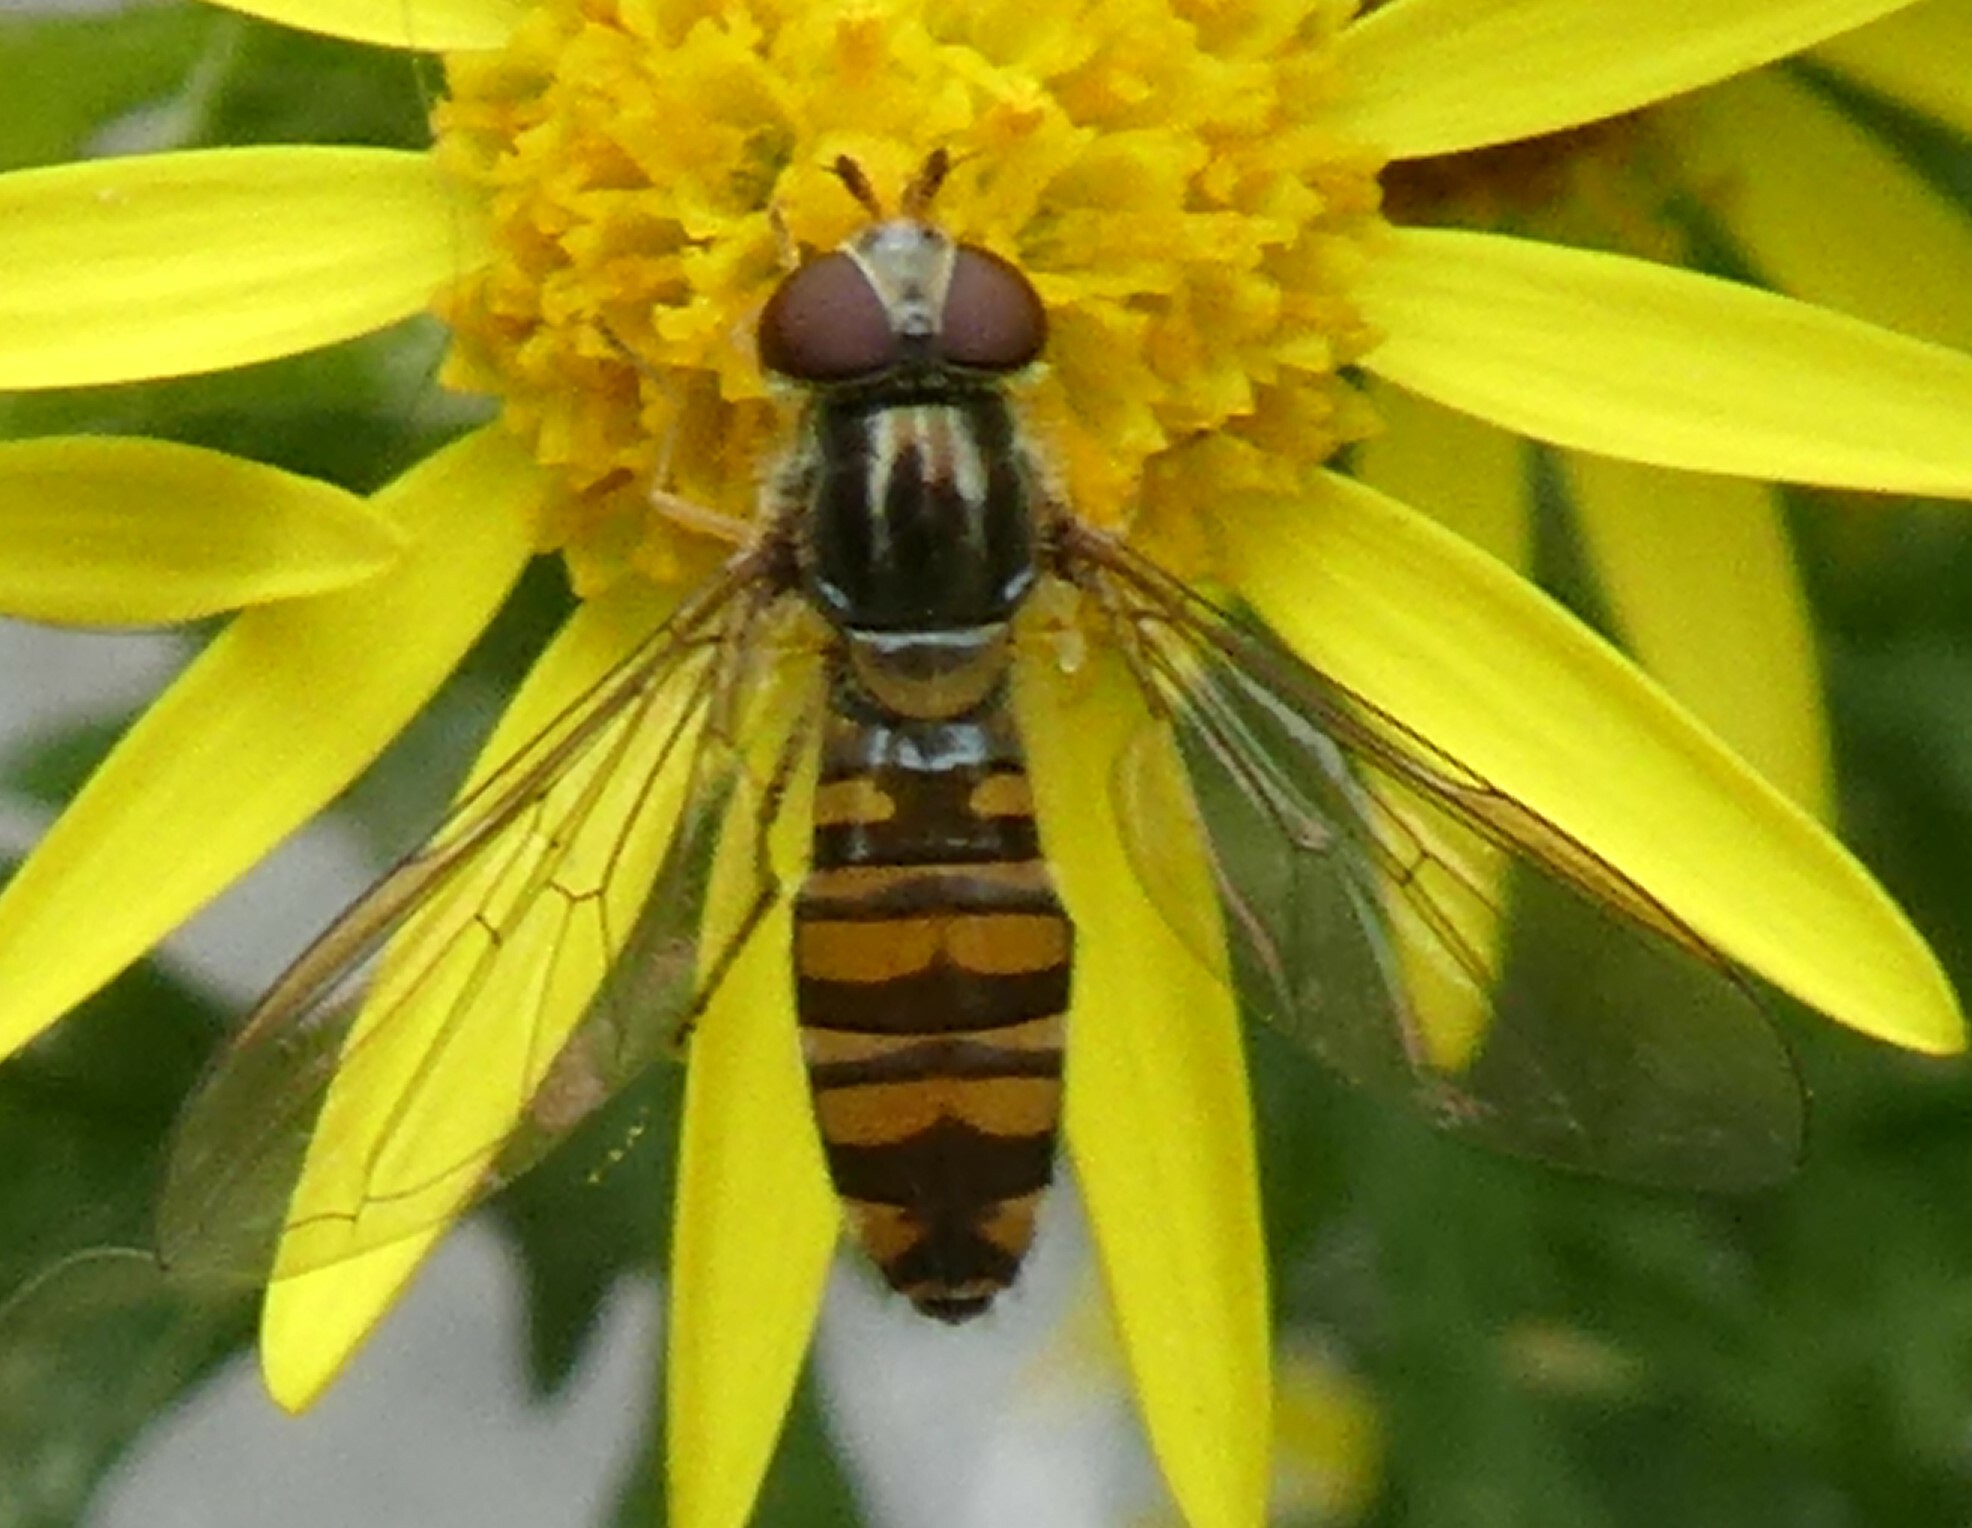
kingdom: Animalia
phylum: Arthropoda
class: Insecta
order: Diptera
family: Syrphidae
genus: Episyrphus
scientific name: Episyrphus balteatus
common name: Marmalade hoverfly
